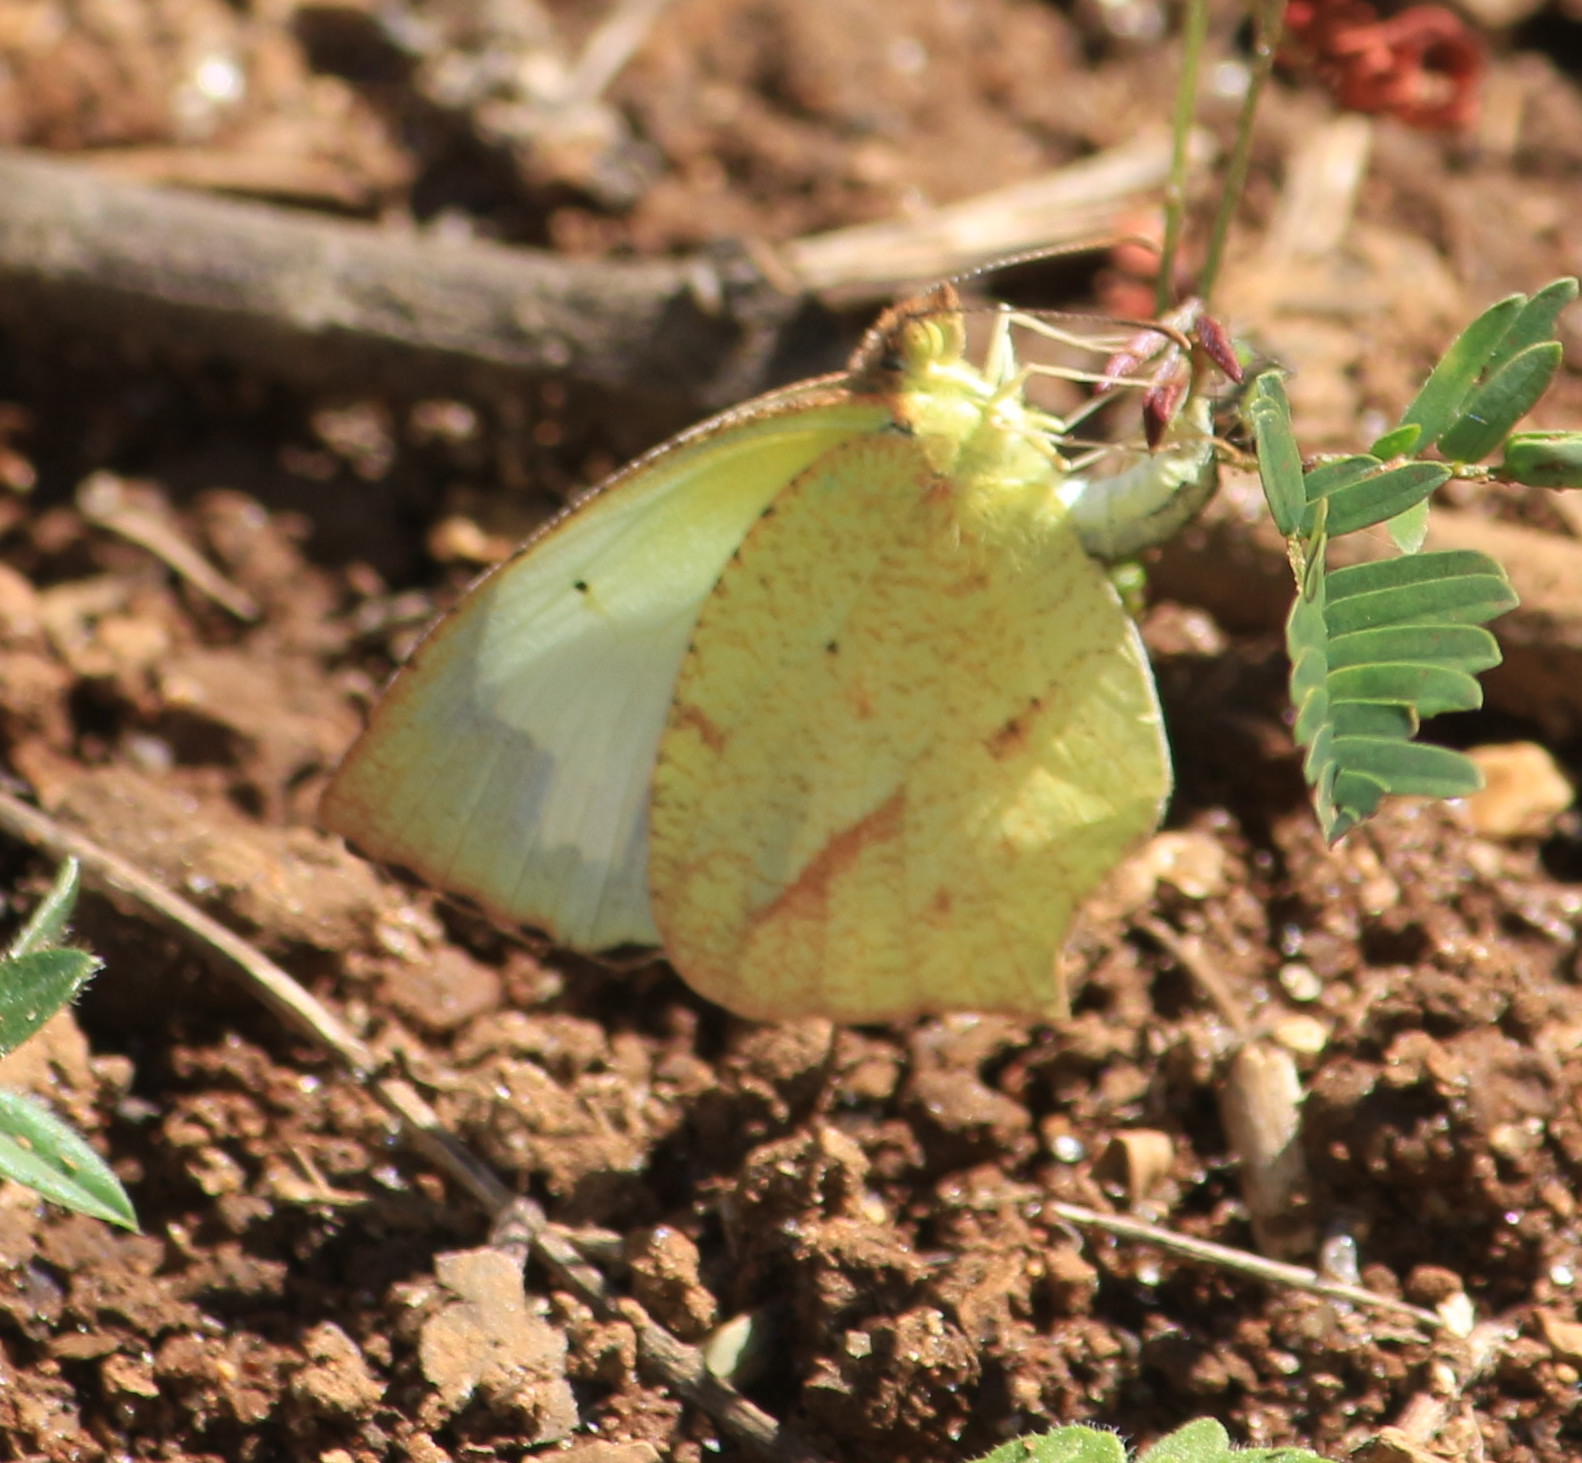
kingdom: Animalia
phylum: Arthropoda
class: Insecta
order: Lepidoptera
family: Pieridae
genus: Abaeis
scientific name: Abaeis mexicana
